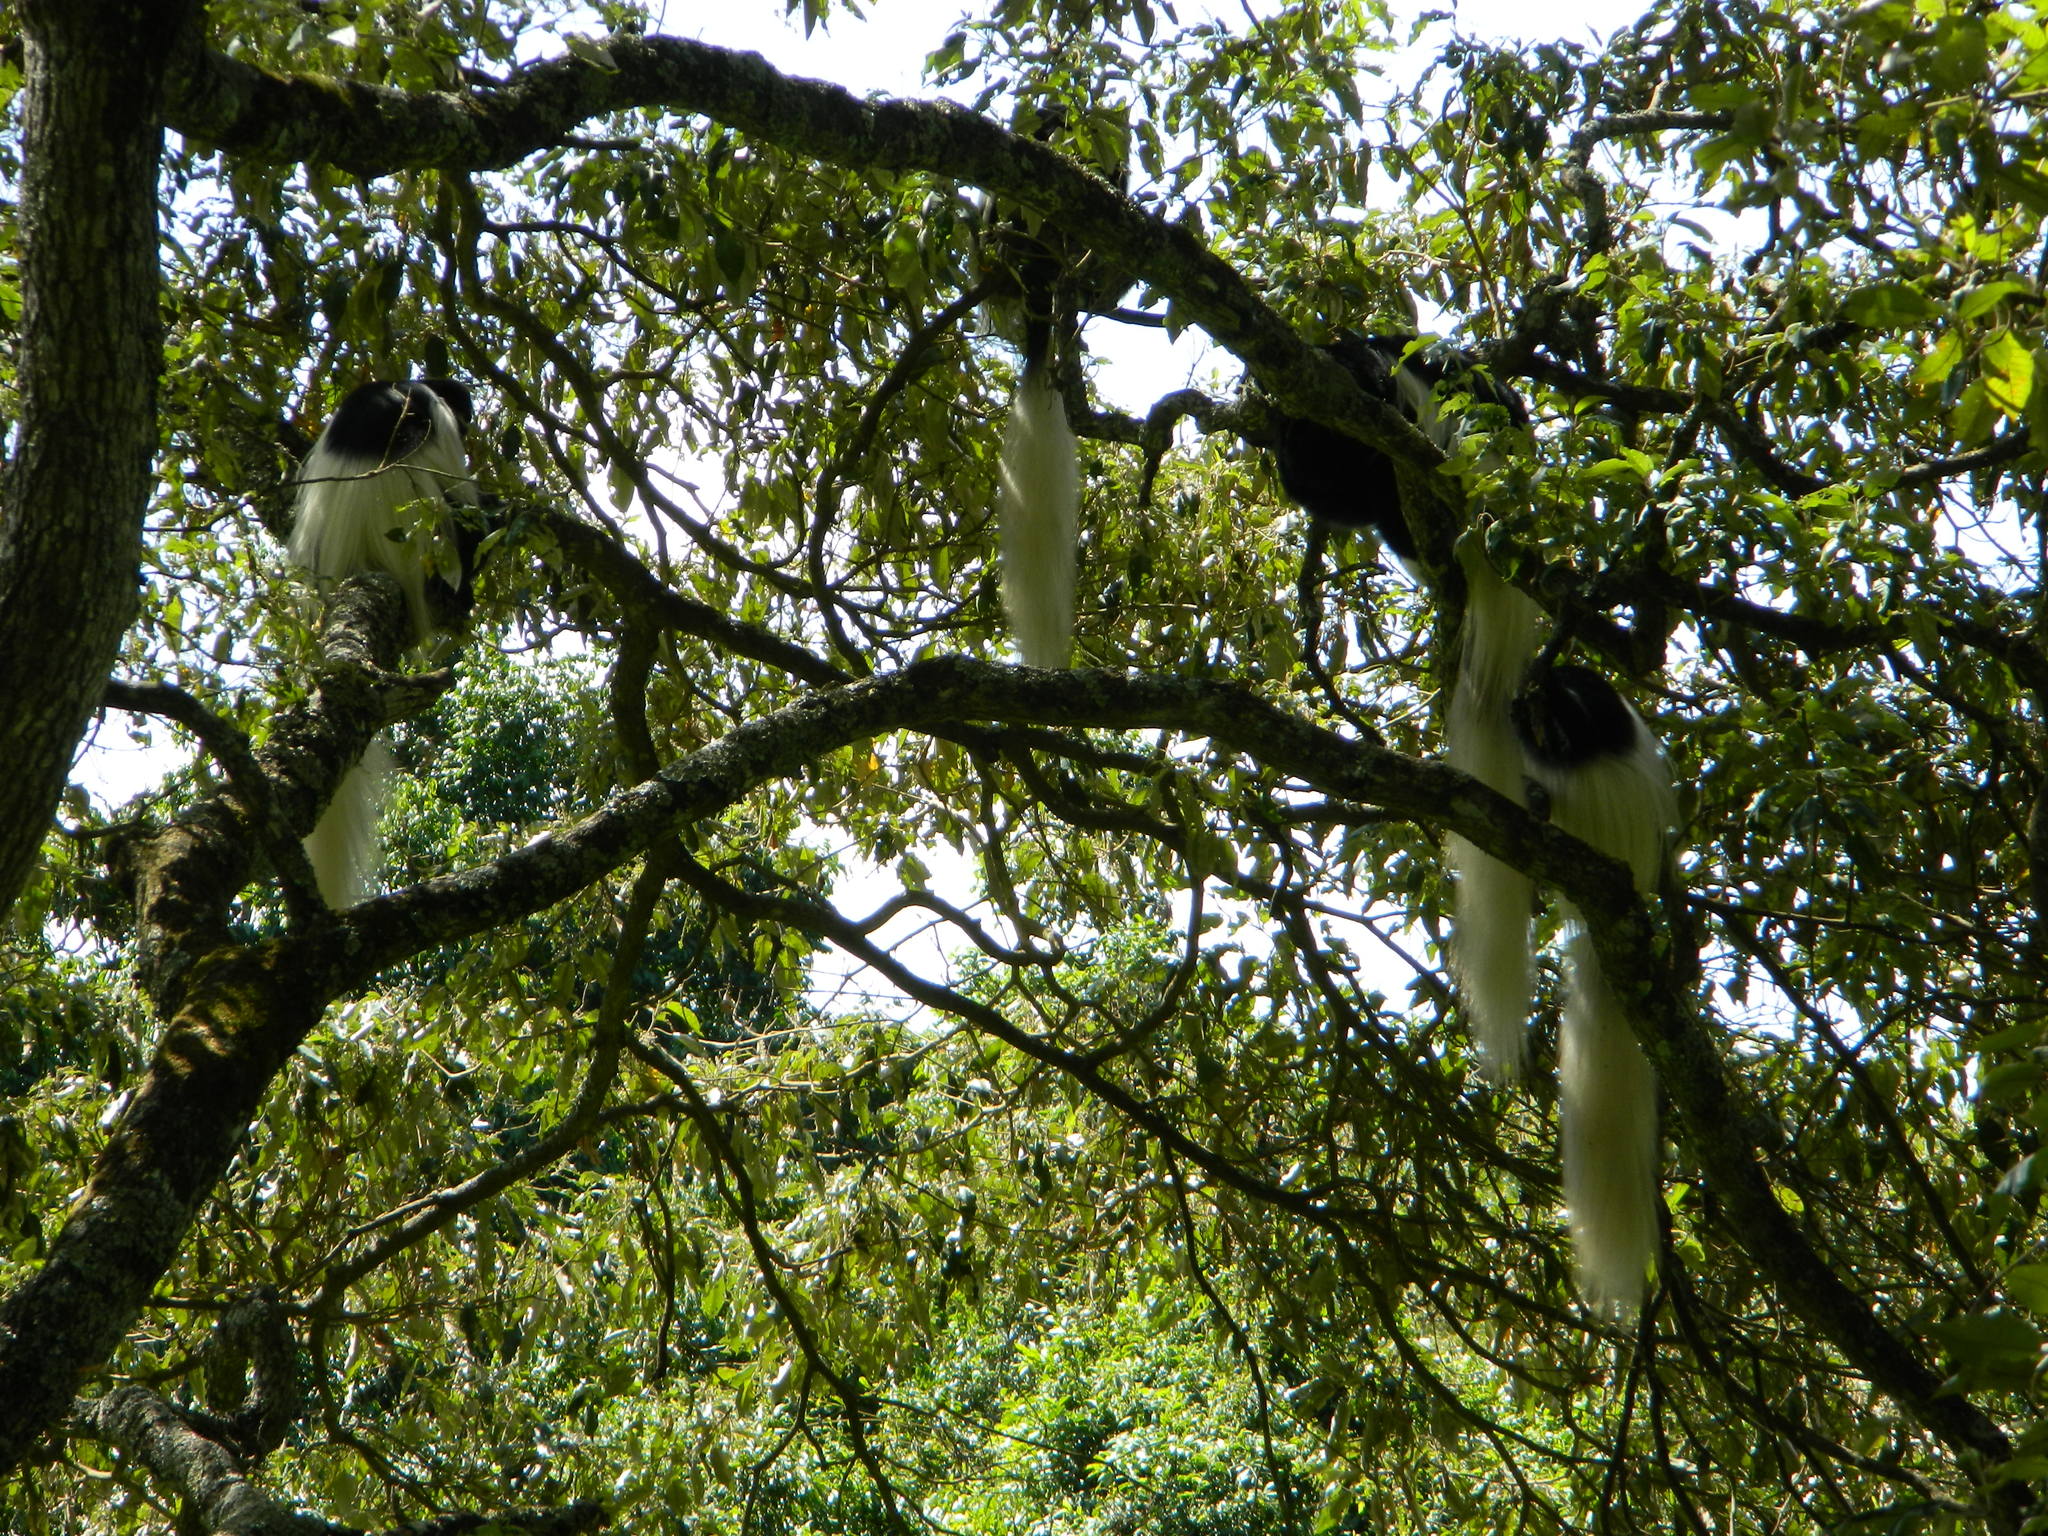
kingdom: Animalia
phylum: Chordata
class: Mammalia
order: Primates
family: Cercopithecidae
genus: Colobus
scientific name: Colobus caudatus
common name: Mount kilimanjaro guereza
